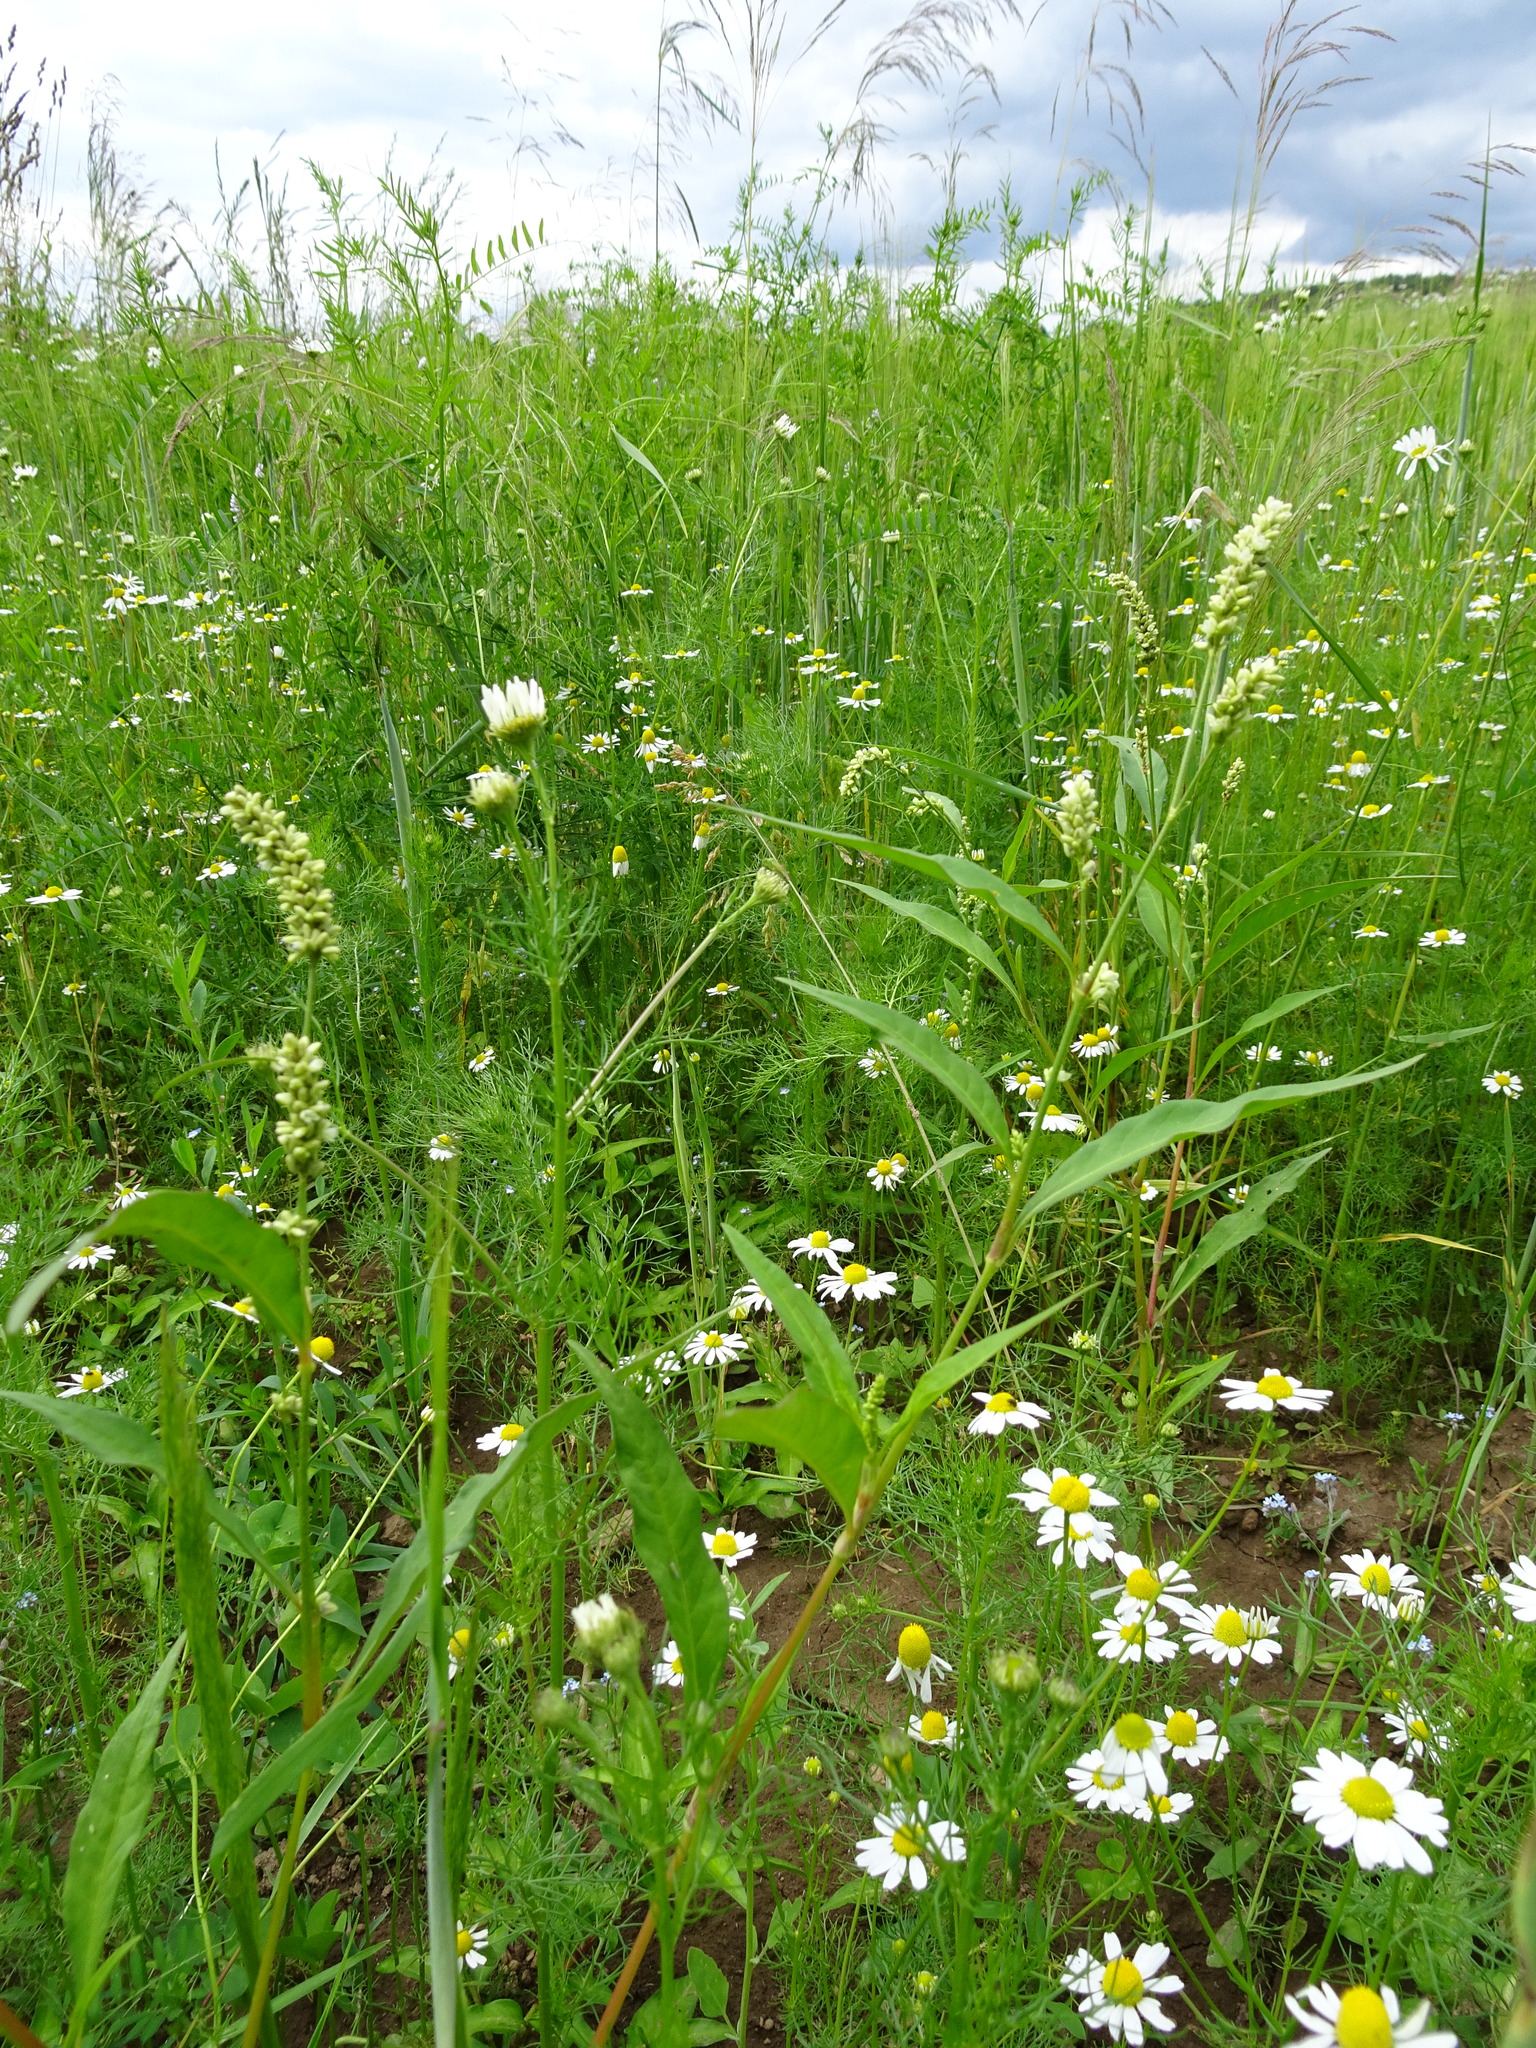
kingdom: Plantae
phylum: Tracheophyta
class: Magnoliopsida
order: Caryophyllales
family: Polygonaceae
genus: Persicaria
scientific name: Persicaria lapathifolia
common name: Curlytop knotweed
